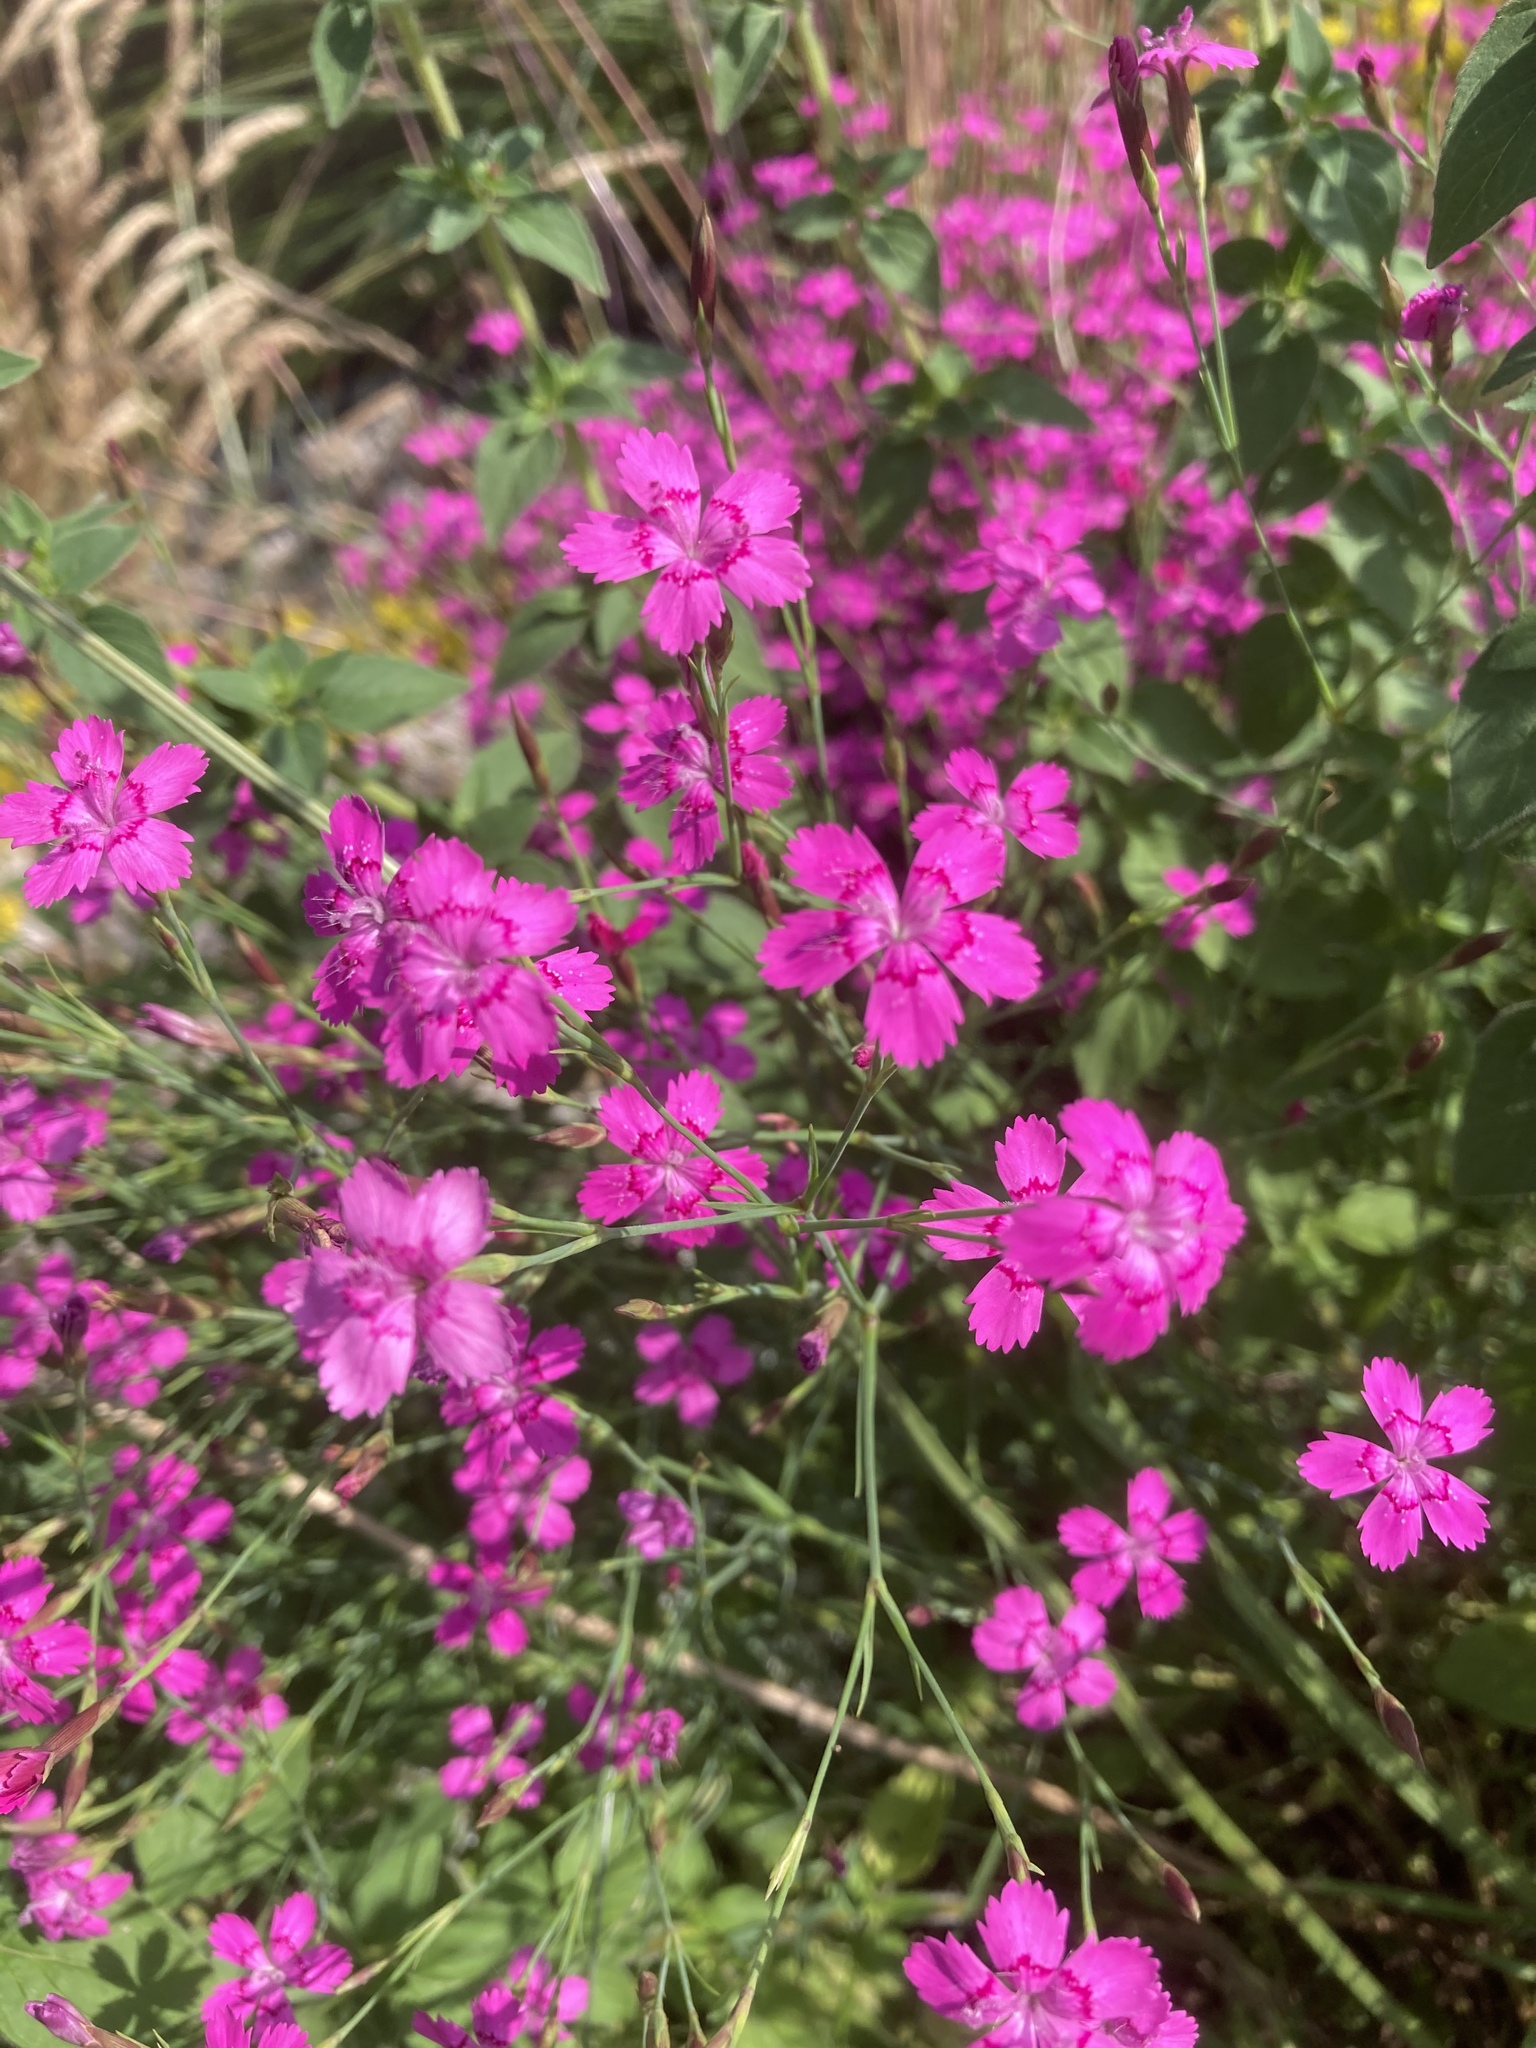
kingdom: Plantae
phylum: Tracheophyta
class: Magnoliopsida
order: Caryophyllales
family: Caryophyllaceae
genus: Dianthus
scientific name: Dianthus deltoides
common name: Maiden pink
